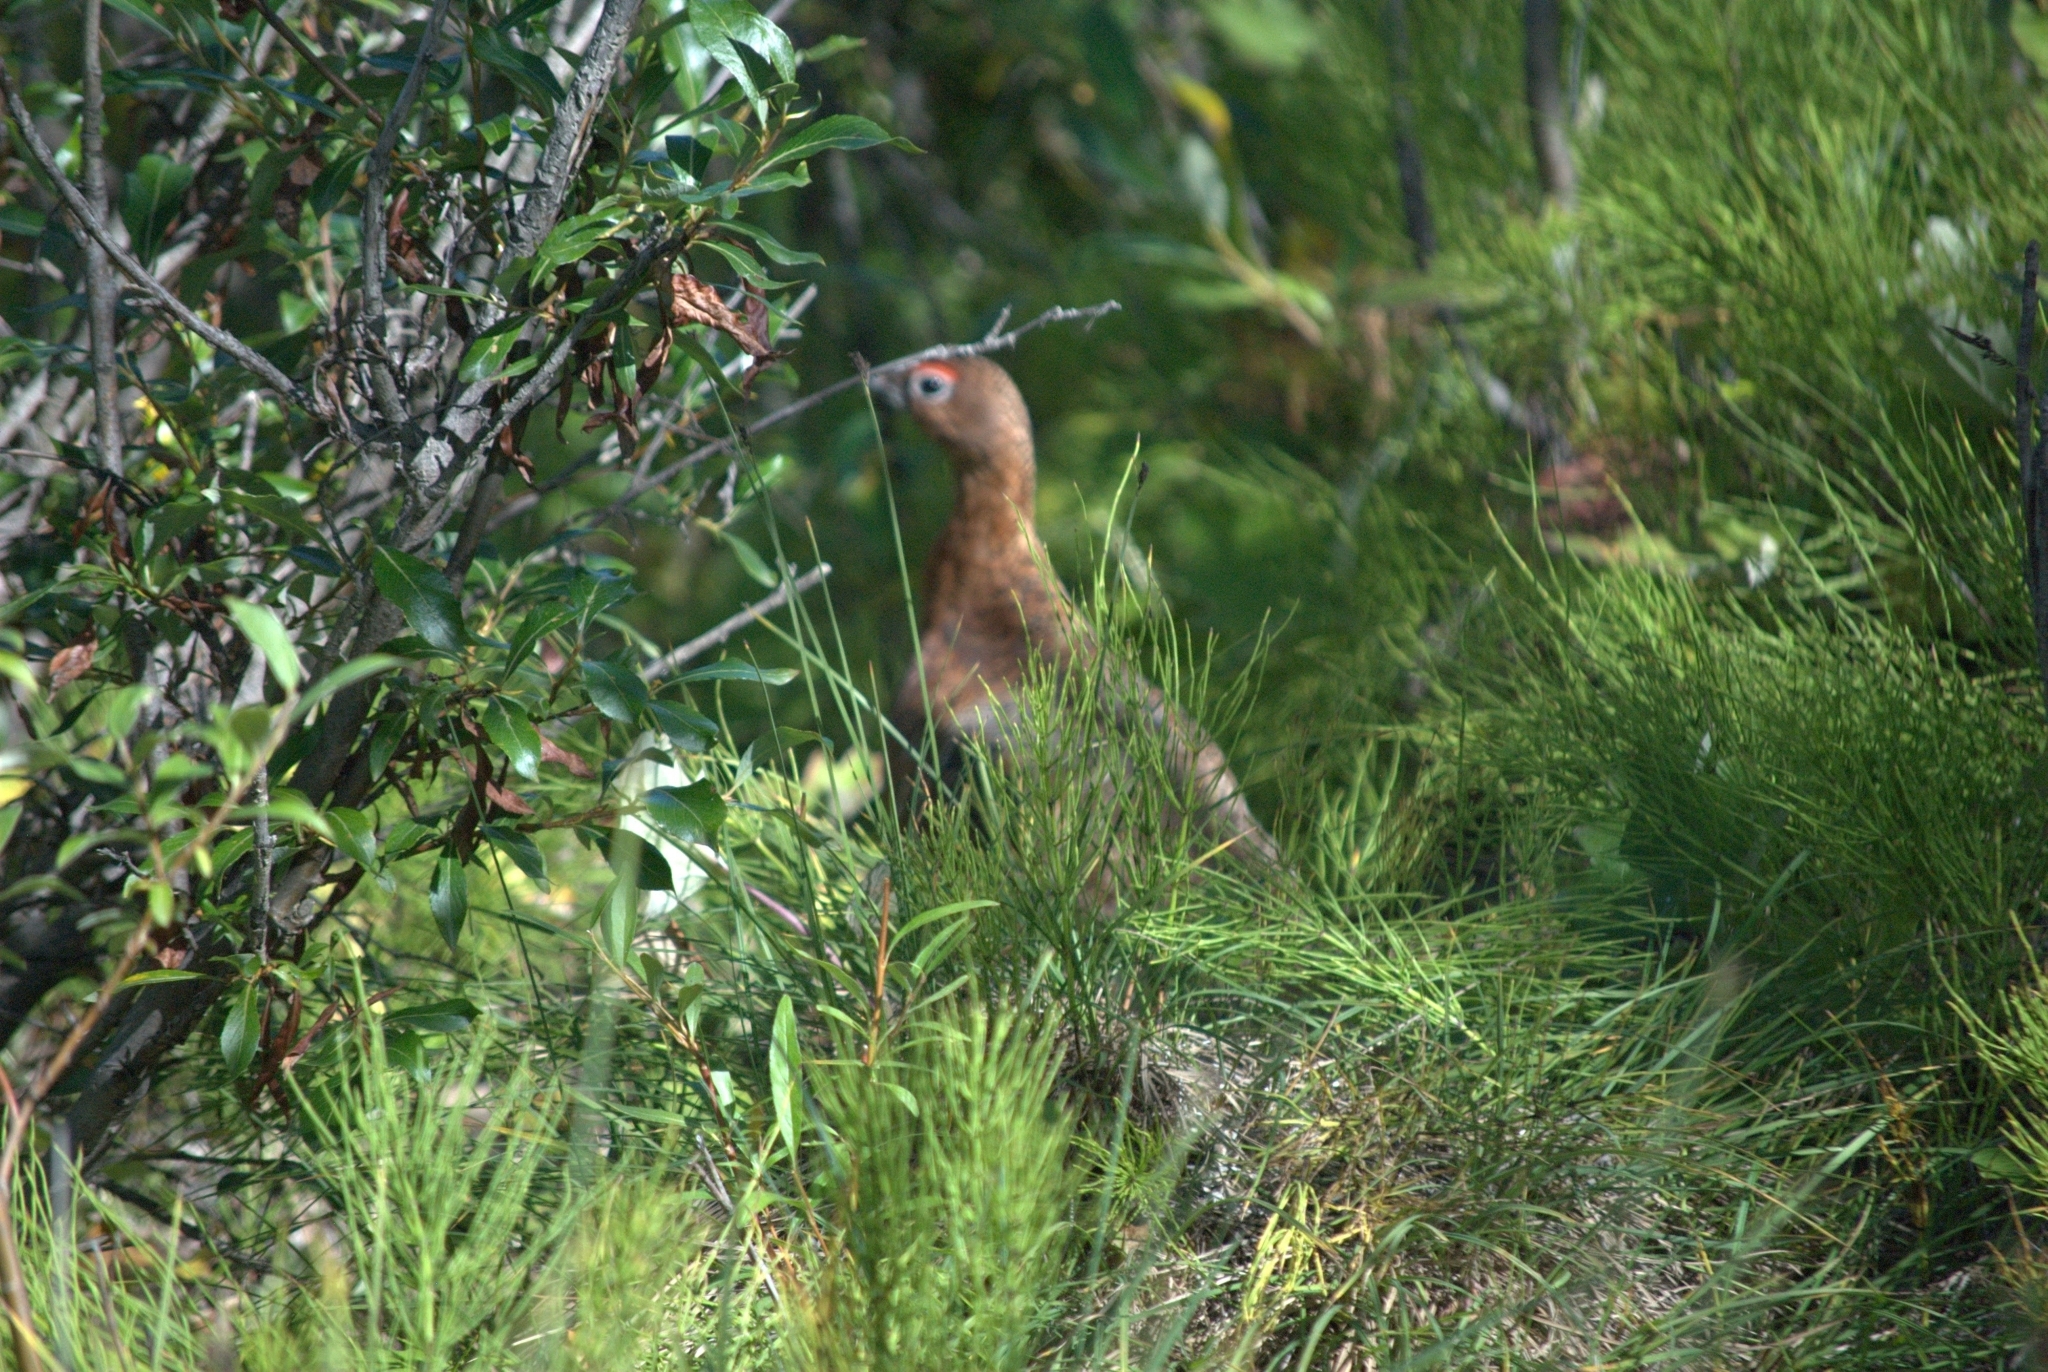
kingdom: Animalia
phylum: Chordata
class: Aves
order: Galliformes
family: Phasianidae
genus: Lagopus
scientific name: Lagopus lagopus
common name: Willow ptarmigan
